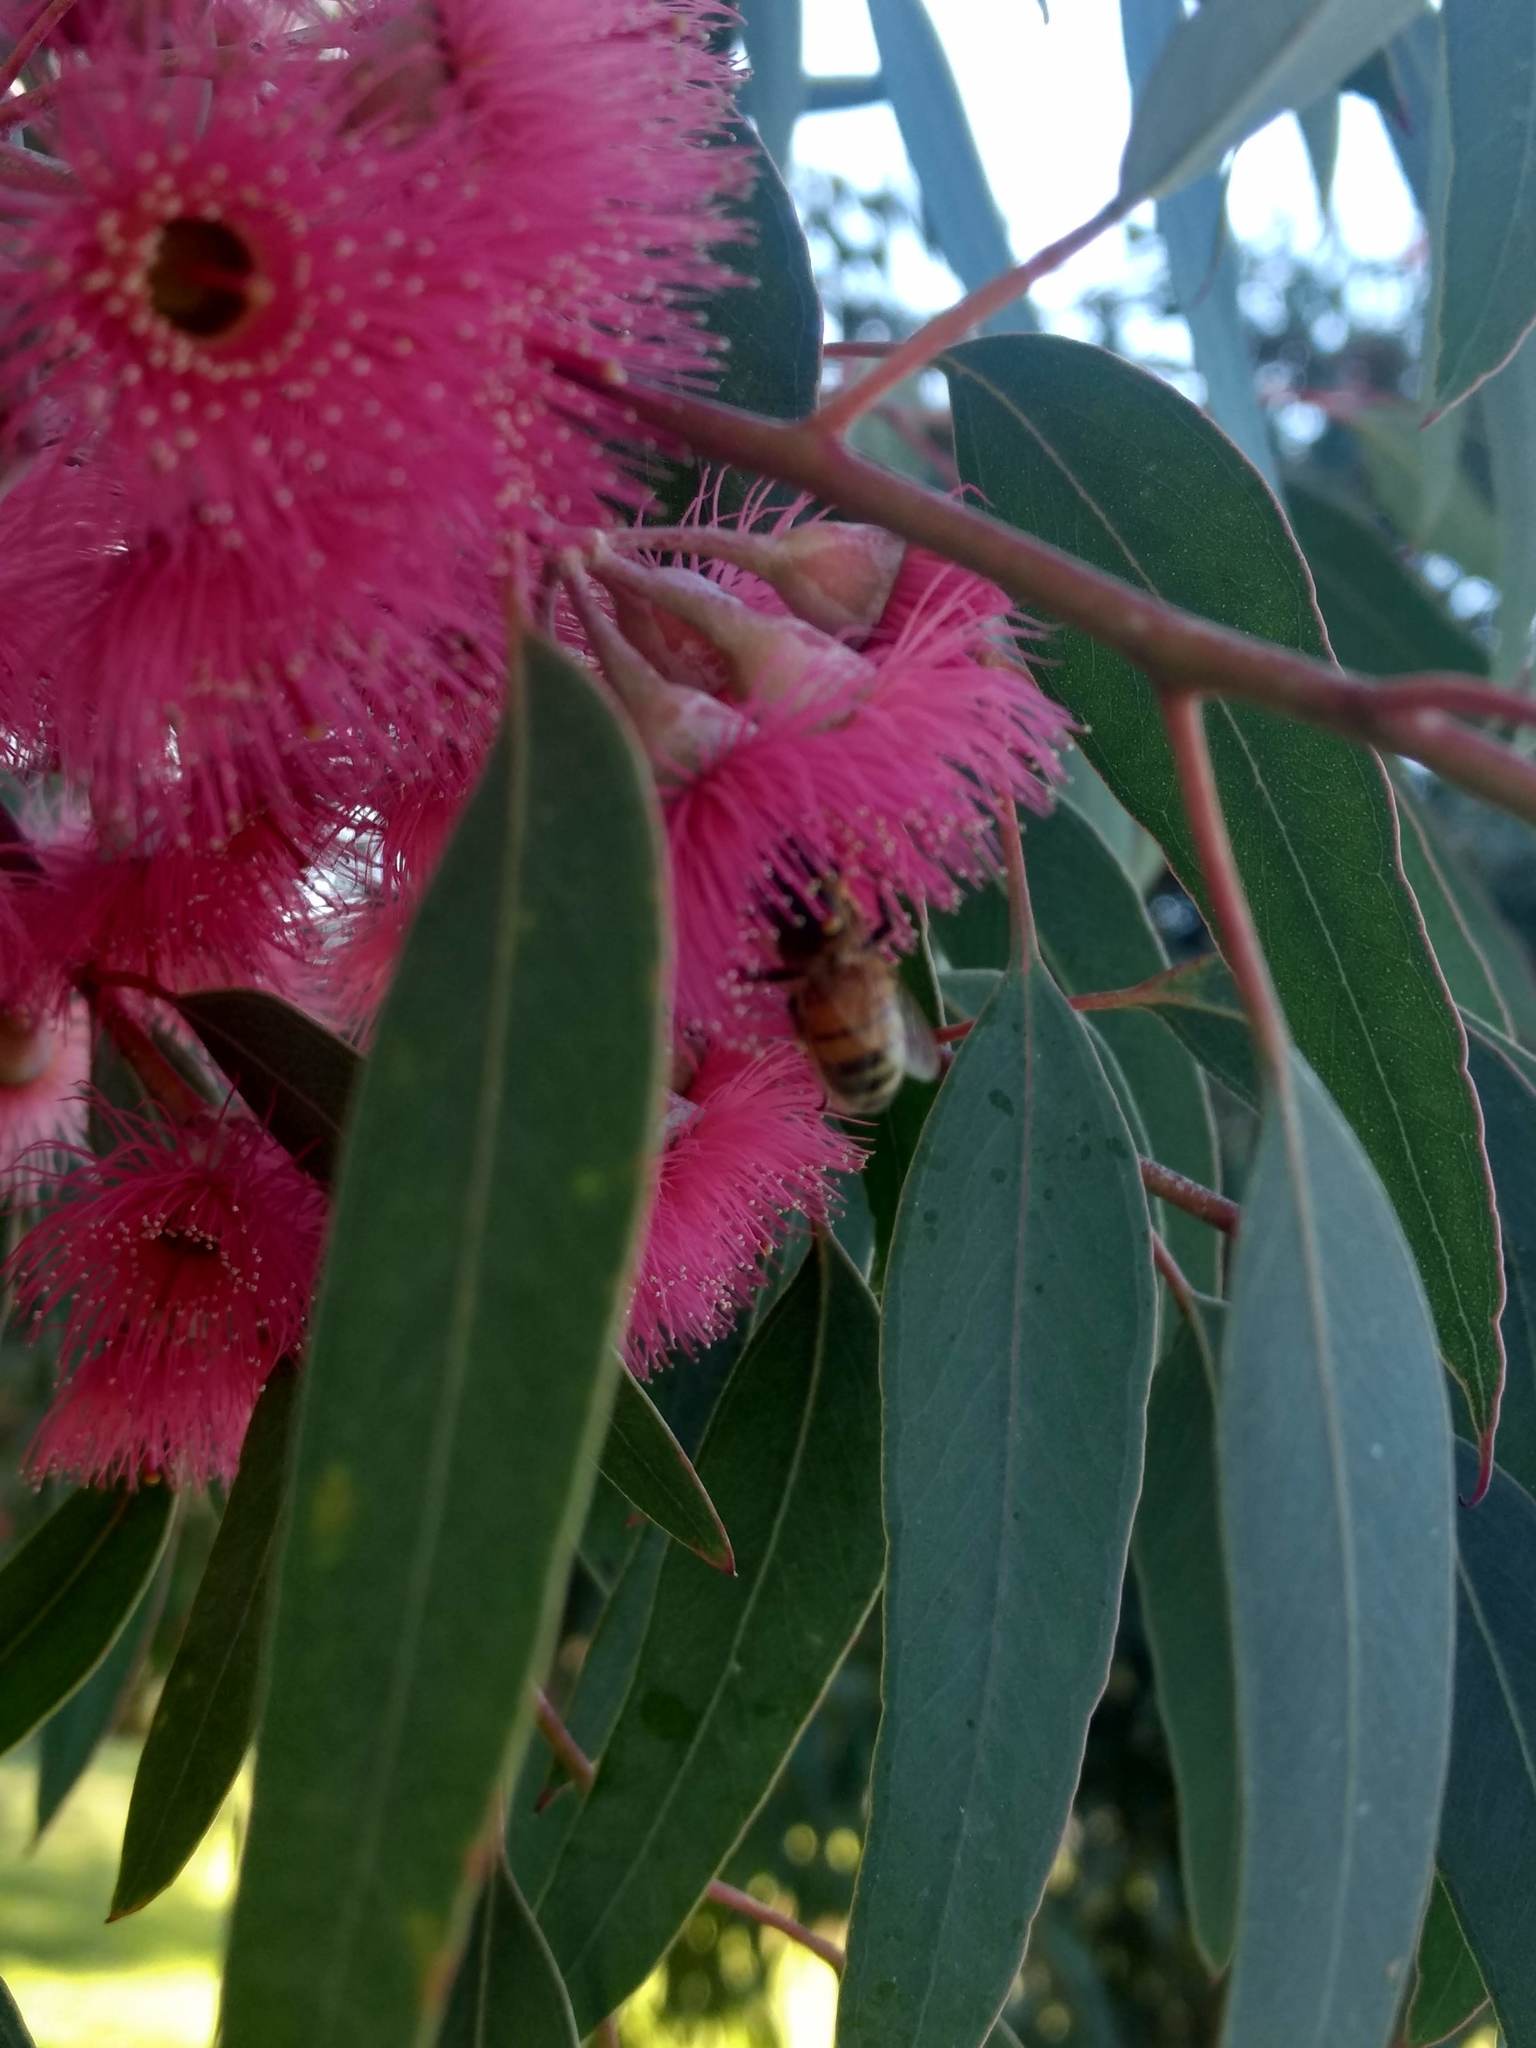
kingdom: Animalia
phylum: Arthropoda
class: Insecta
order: Hymenoptera
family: Apidae
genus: Apis
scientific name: Apis mellifera
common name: Honey bee
